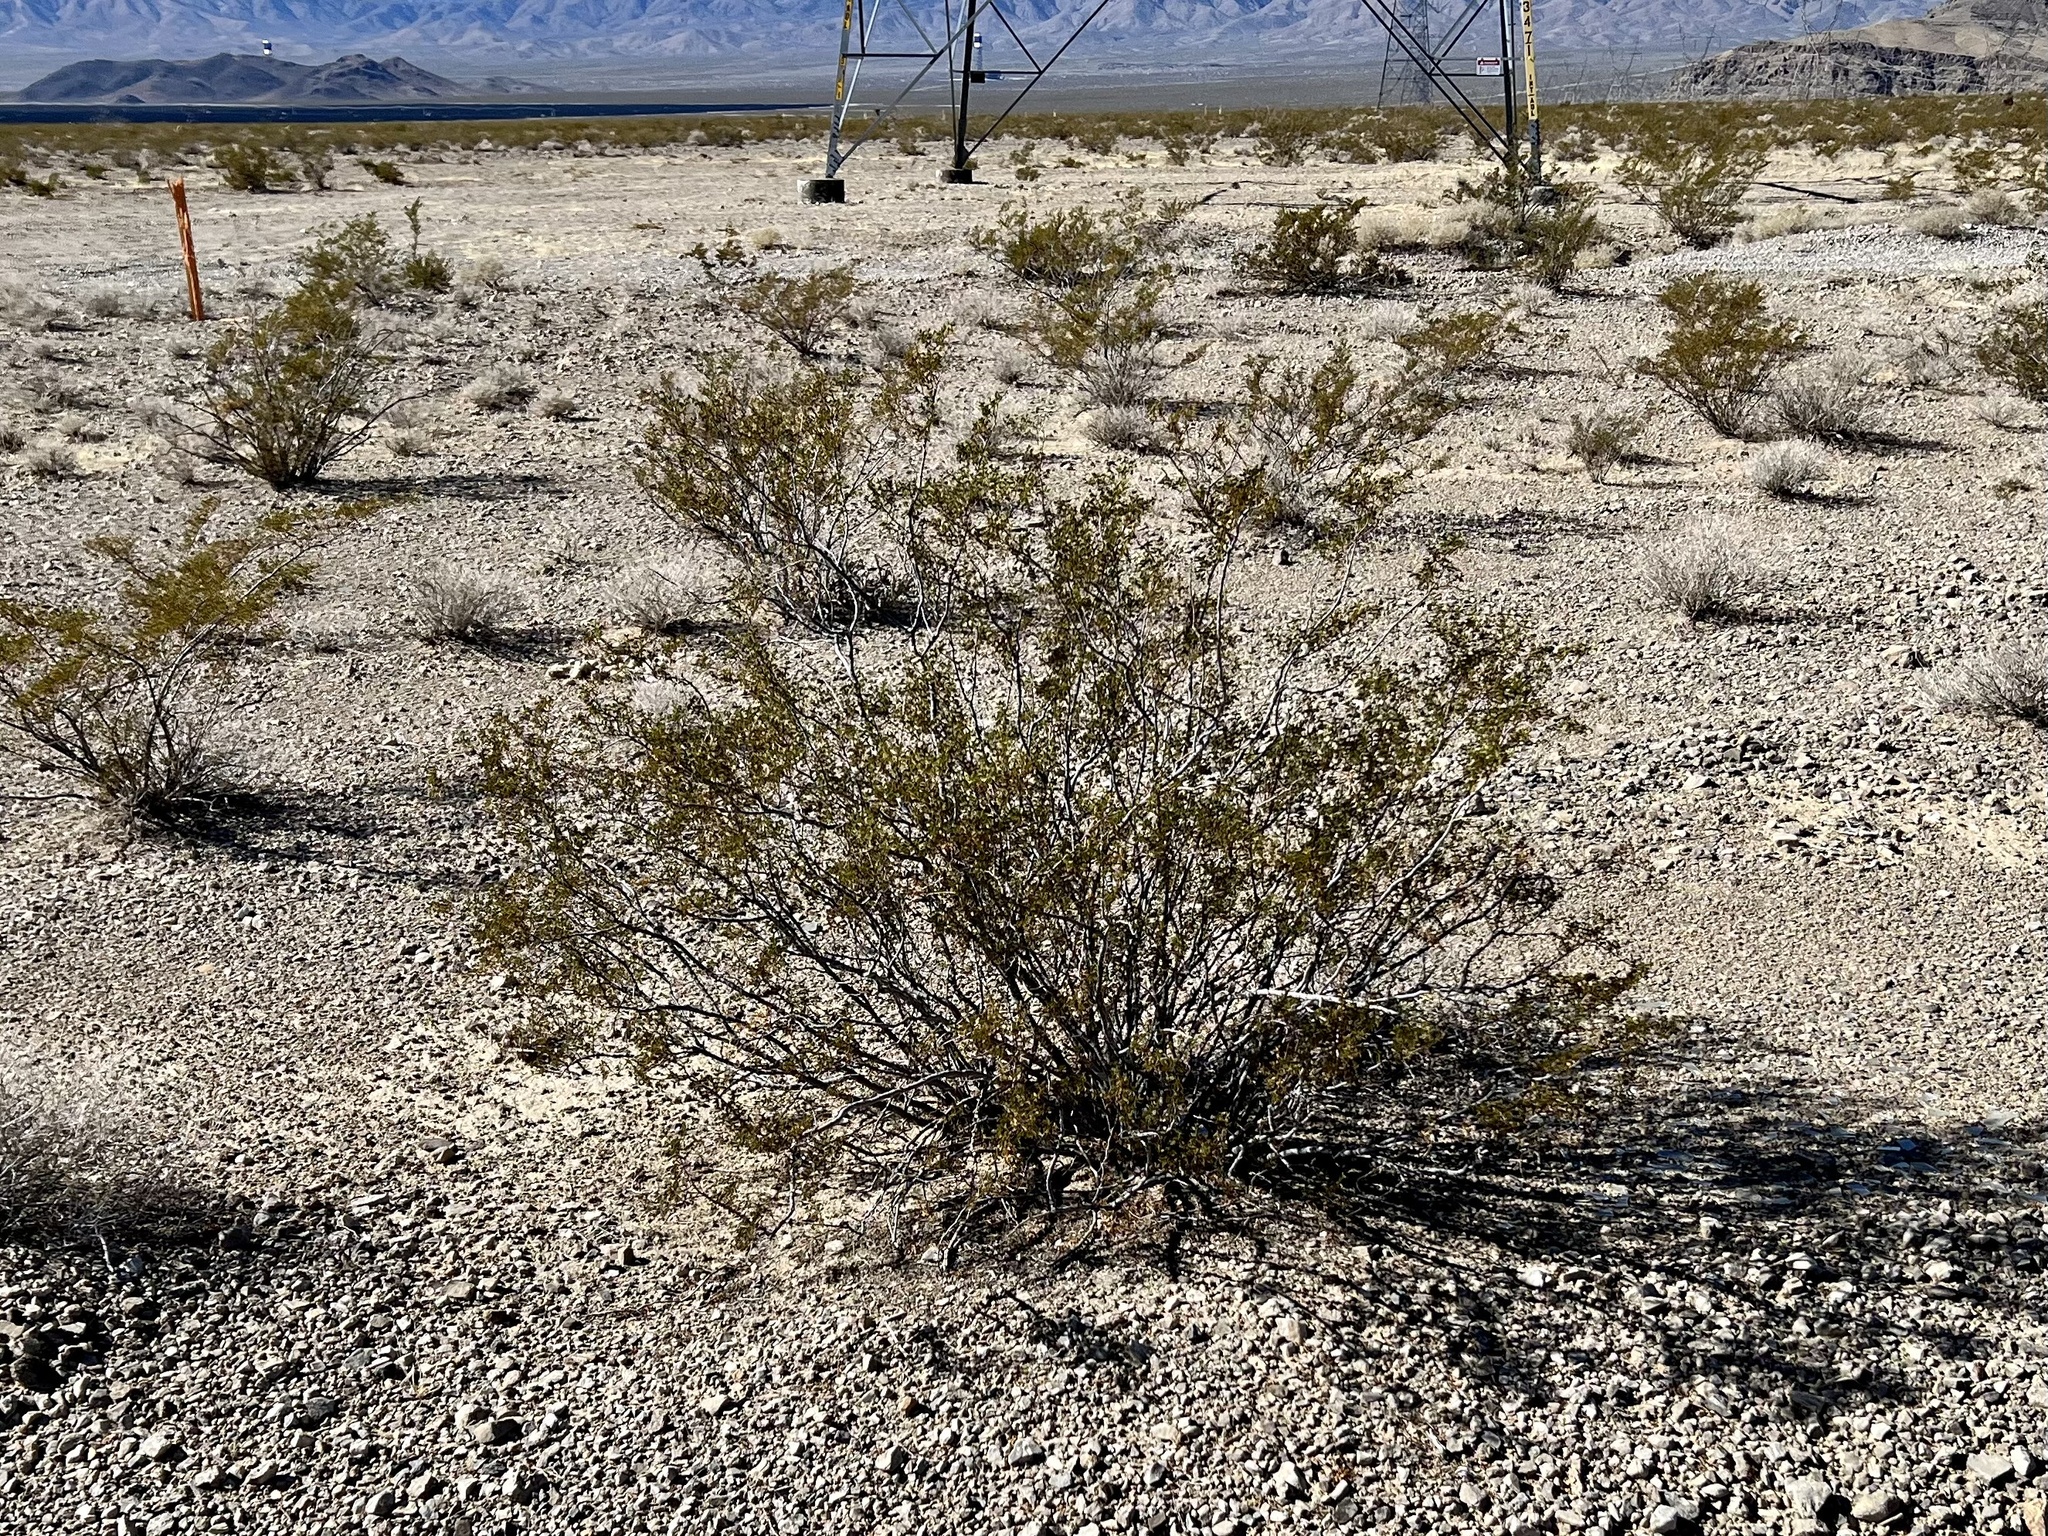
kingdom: Plantae
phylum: Tracheophyta
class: Magnoliopsida
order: Zygophyllales
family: Zygophyllaceae
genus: Larrea
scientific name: Larrea tridentata
